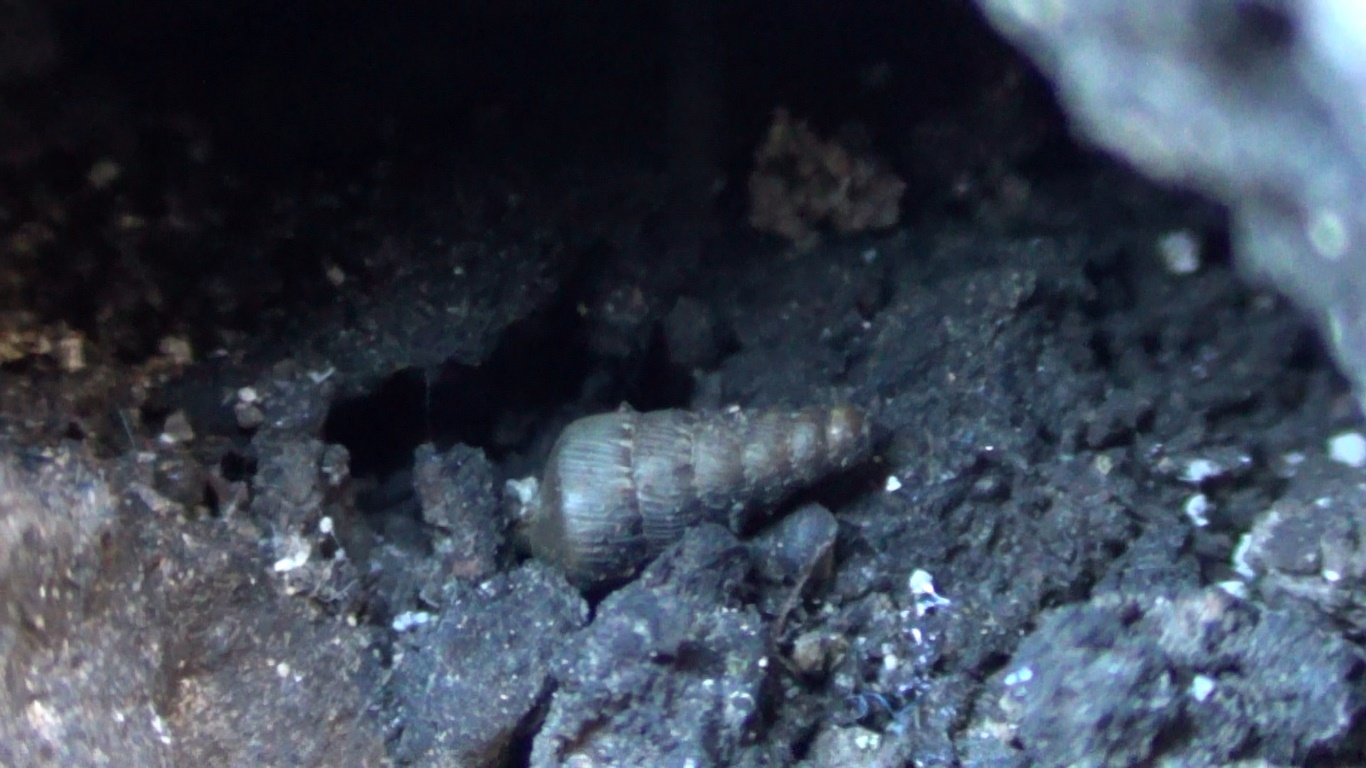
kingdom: Animalia
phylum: Mollusca
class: Gastropoda
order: Stylommatophora
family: Clausiliidae
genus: Papillifera
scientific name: Papillifera papillaris
